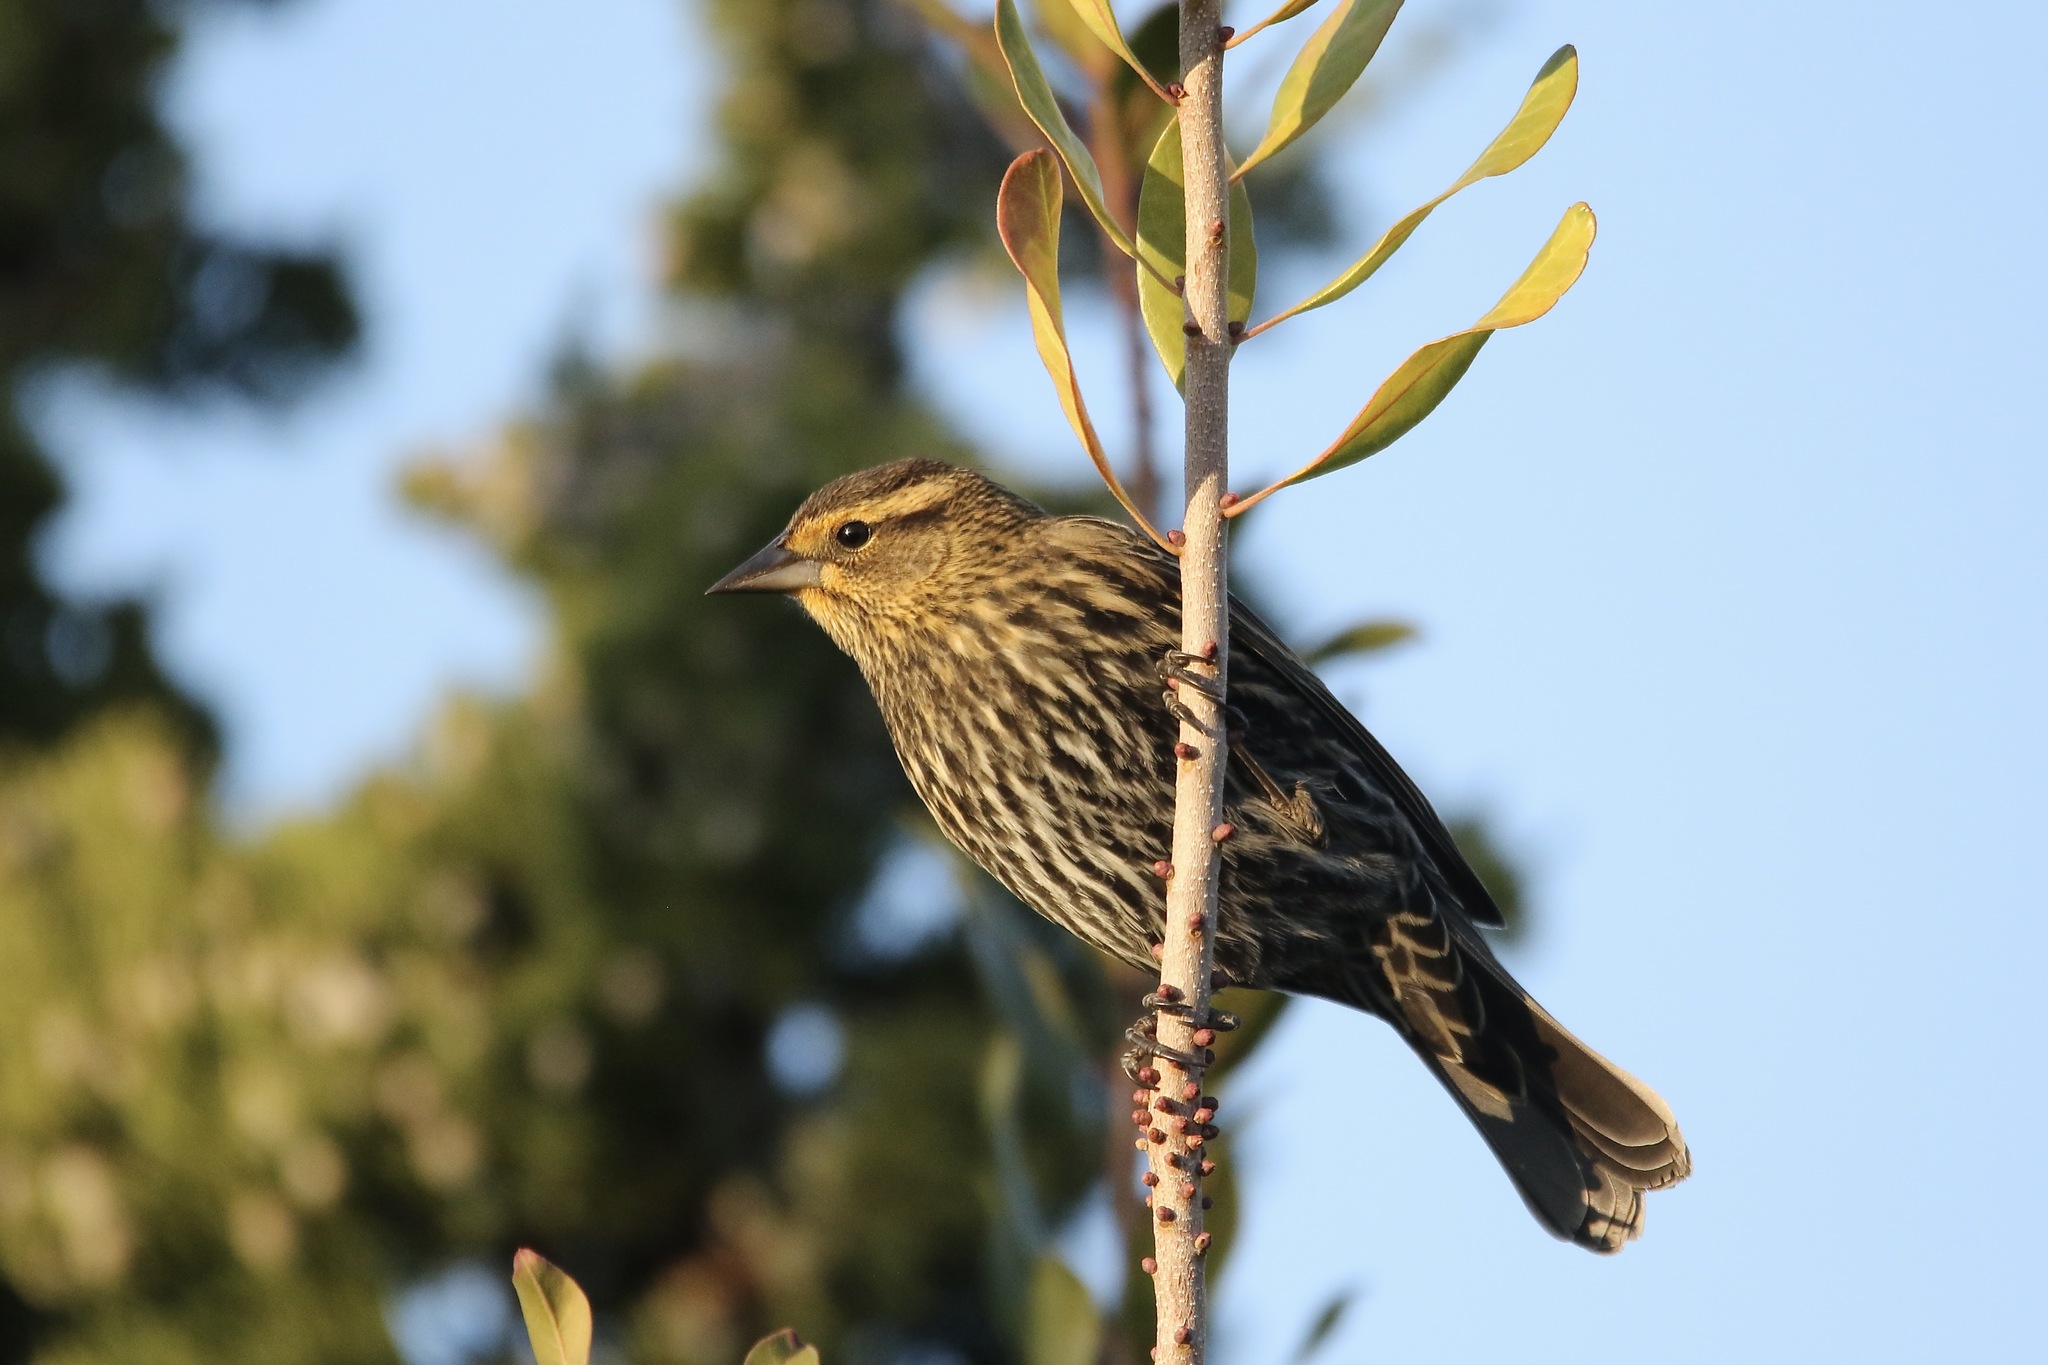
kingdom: Animalia
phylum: Chordata
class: Aves
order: Passeriformes
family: Icteridae
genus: Agelaius
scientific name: Agelaius phoeniceus
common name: Red-winged blackbird
